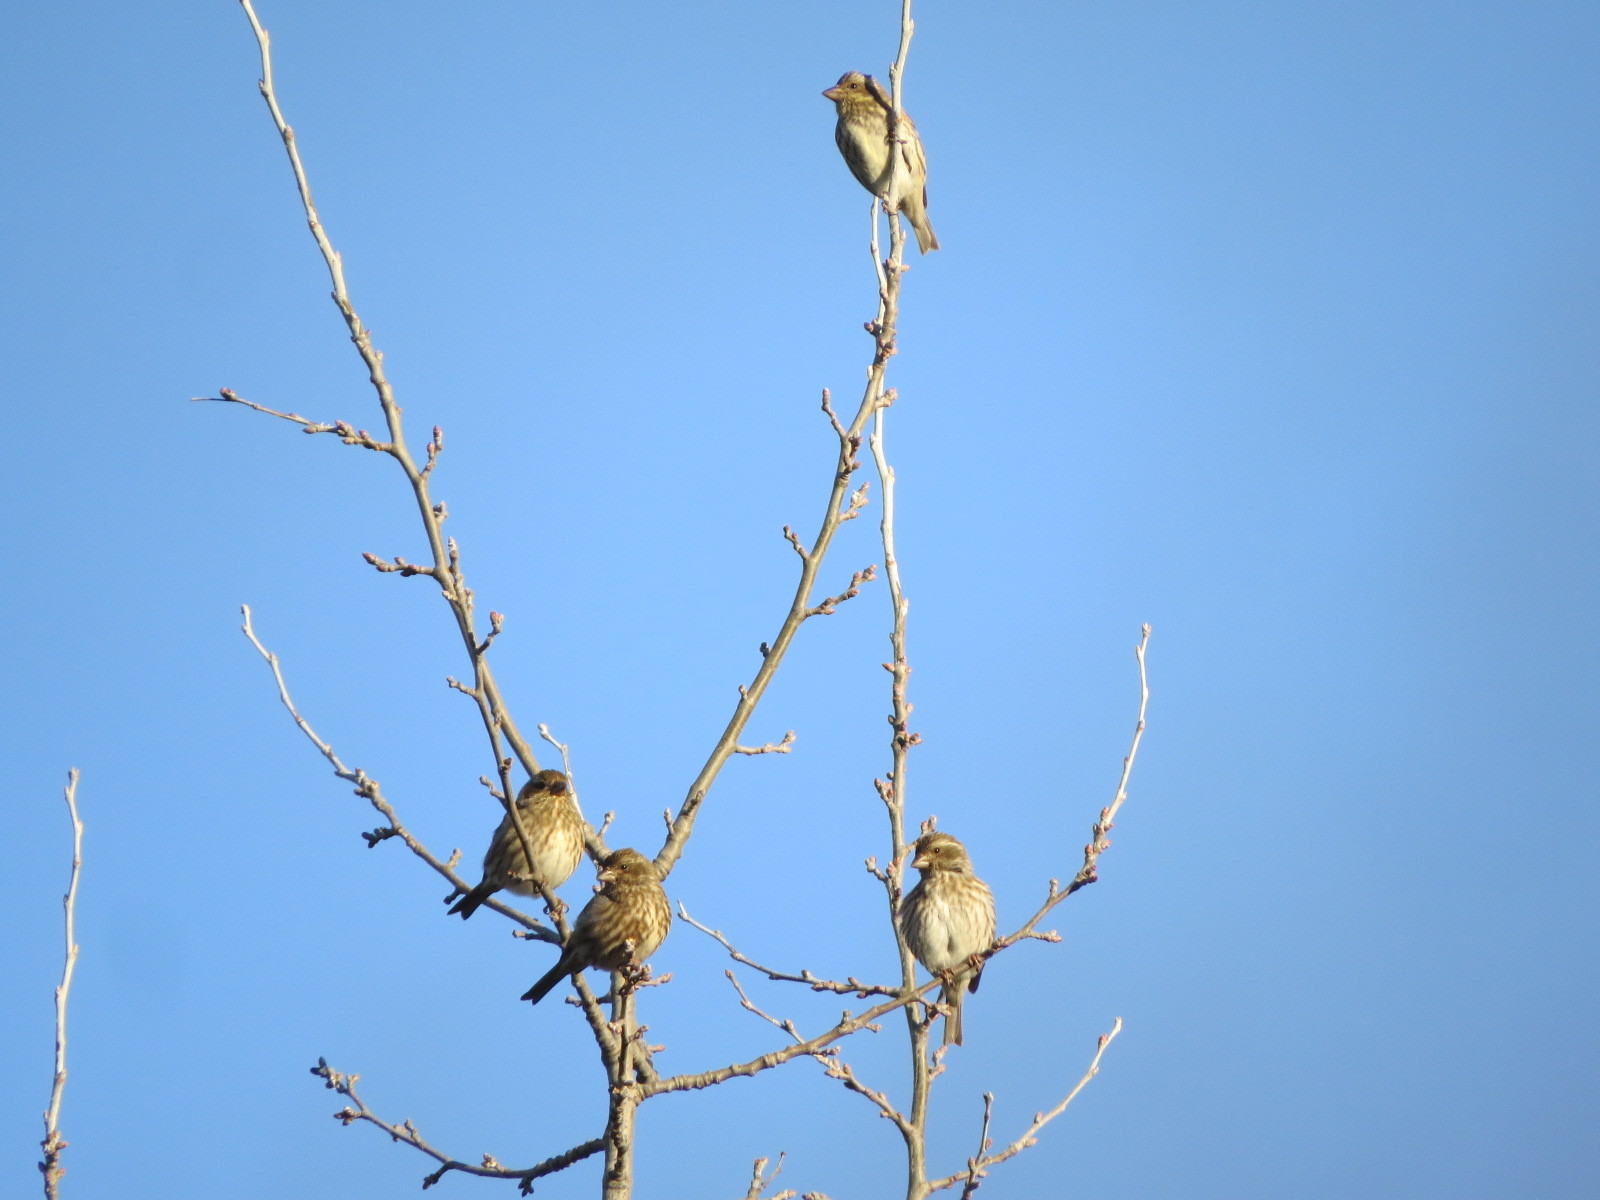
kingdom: Animalia
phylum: Chordata
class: Aves
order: Passeriformes
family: Fringillidae
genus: Haemorhous
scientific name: Haemorhous purpureus
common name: Purple finch
